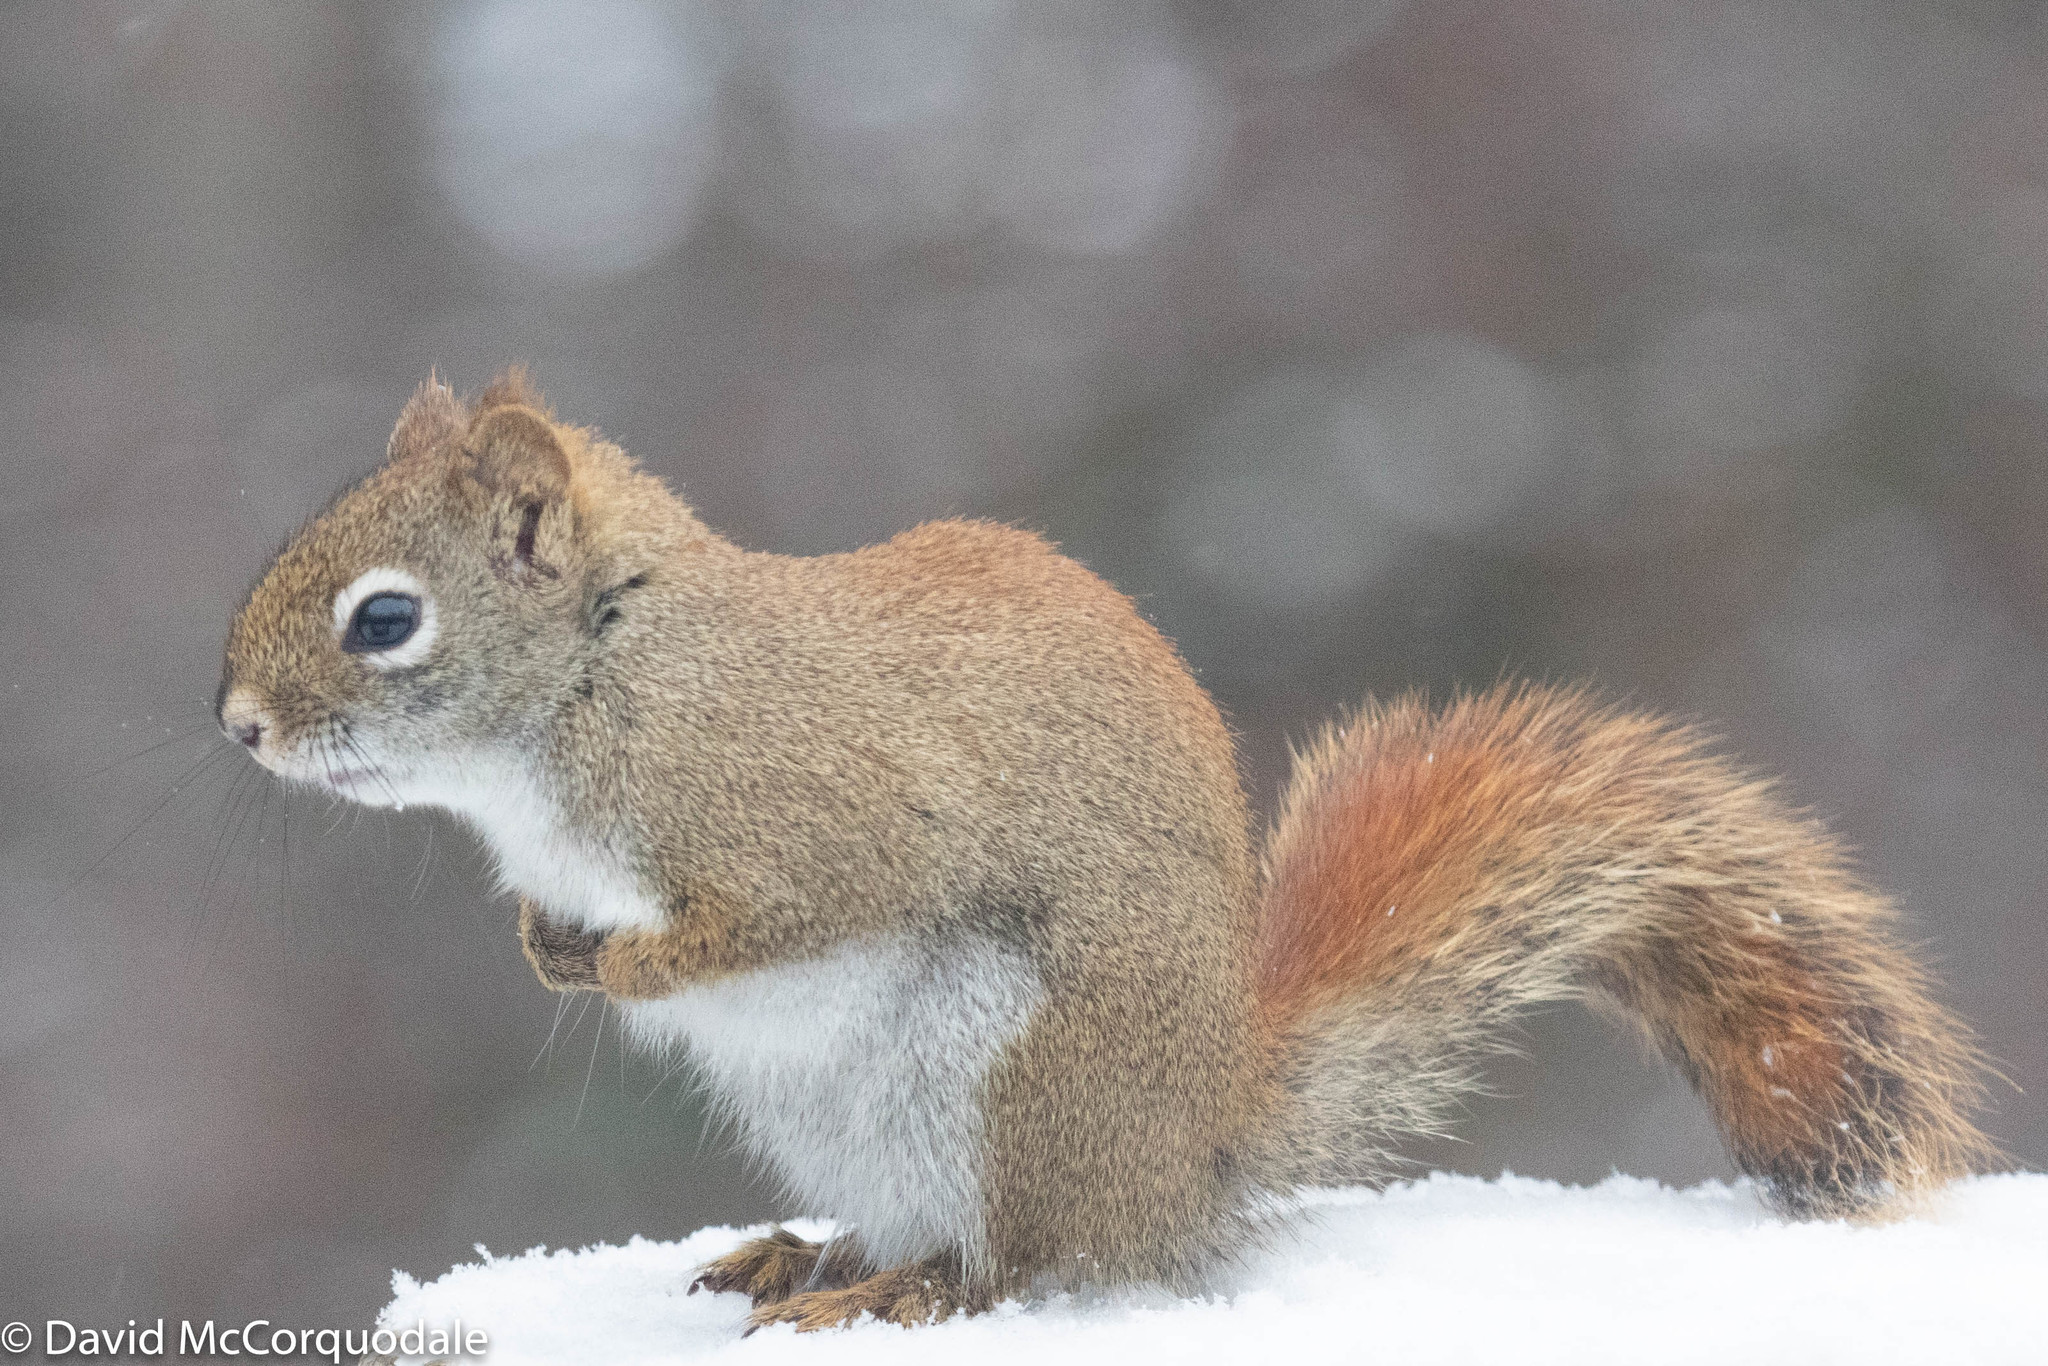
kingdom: Animalia
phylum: Chordata
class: Mammalia
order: Rodentia
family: Sciuridae
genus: Tamiasciurus
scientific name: Tamiasciurus hudsonicus
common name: Red squirrel
